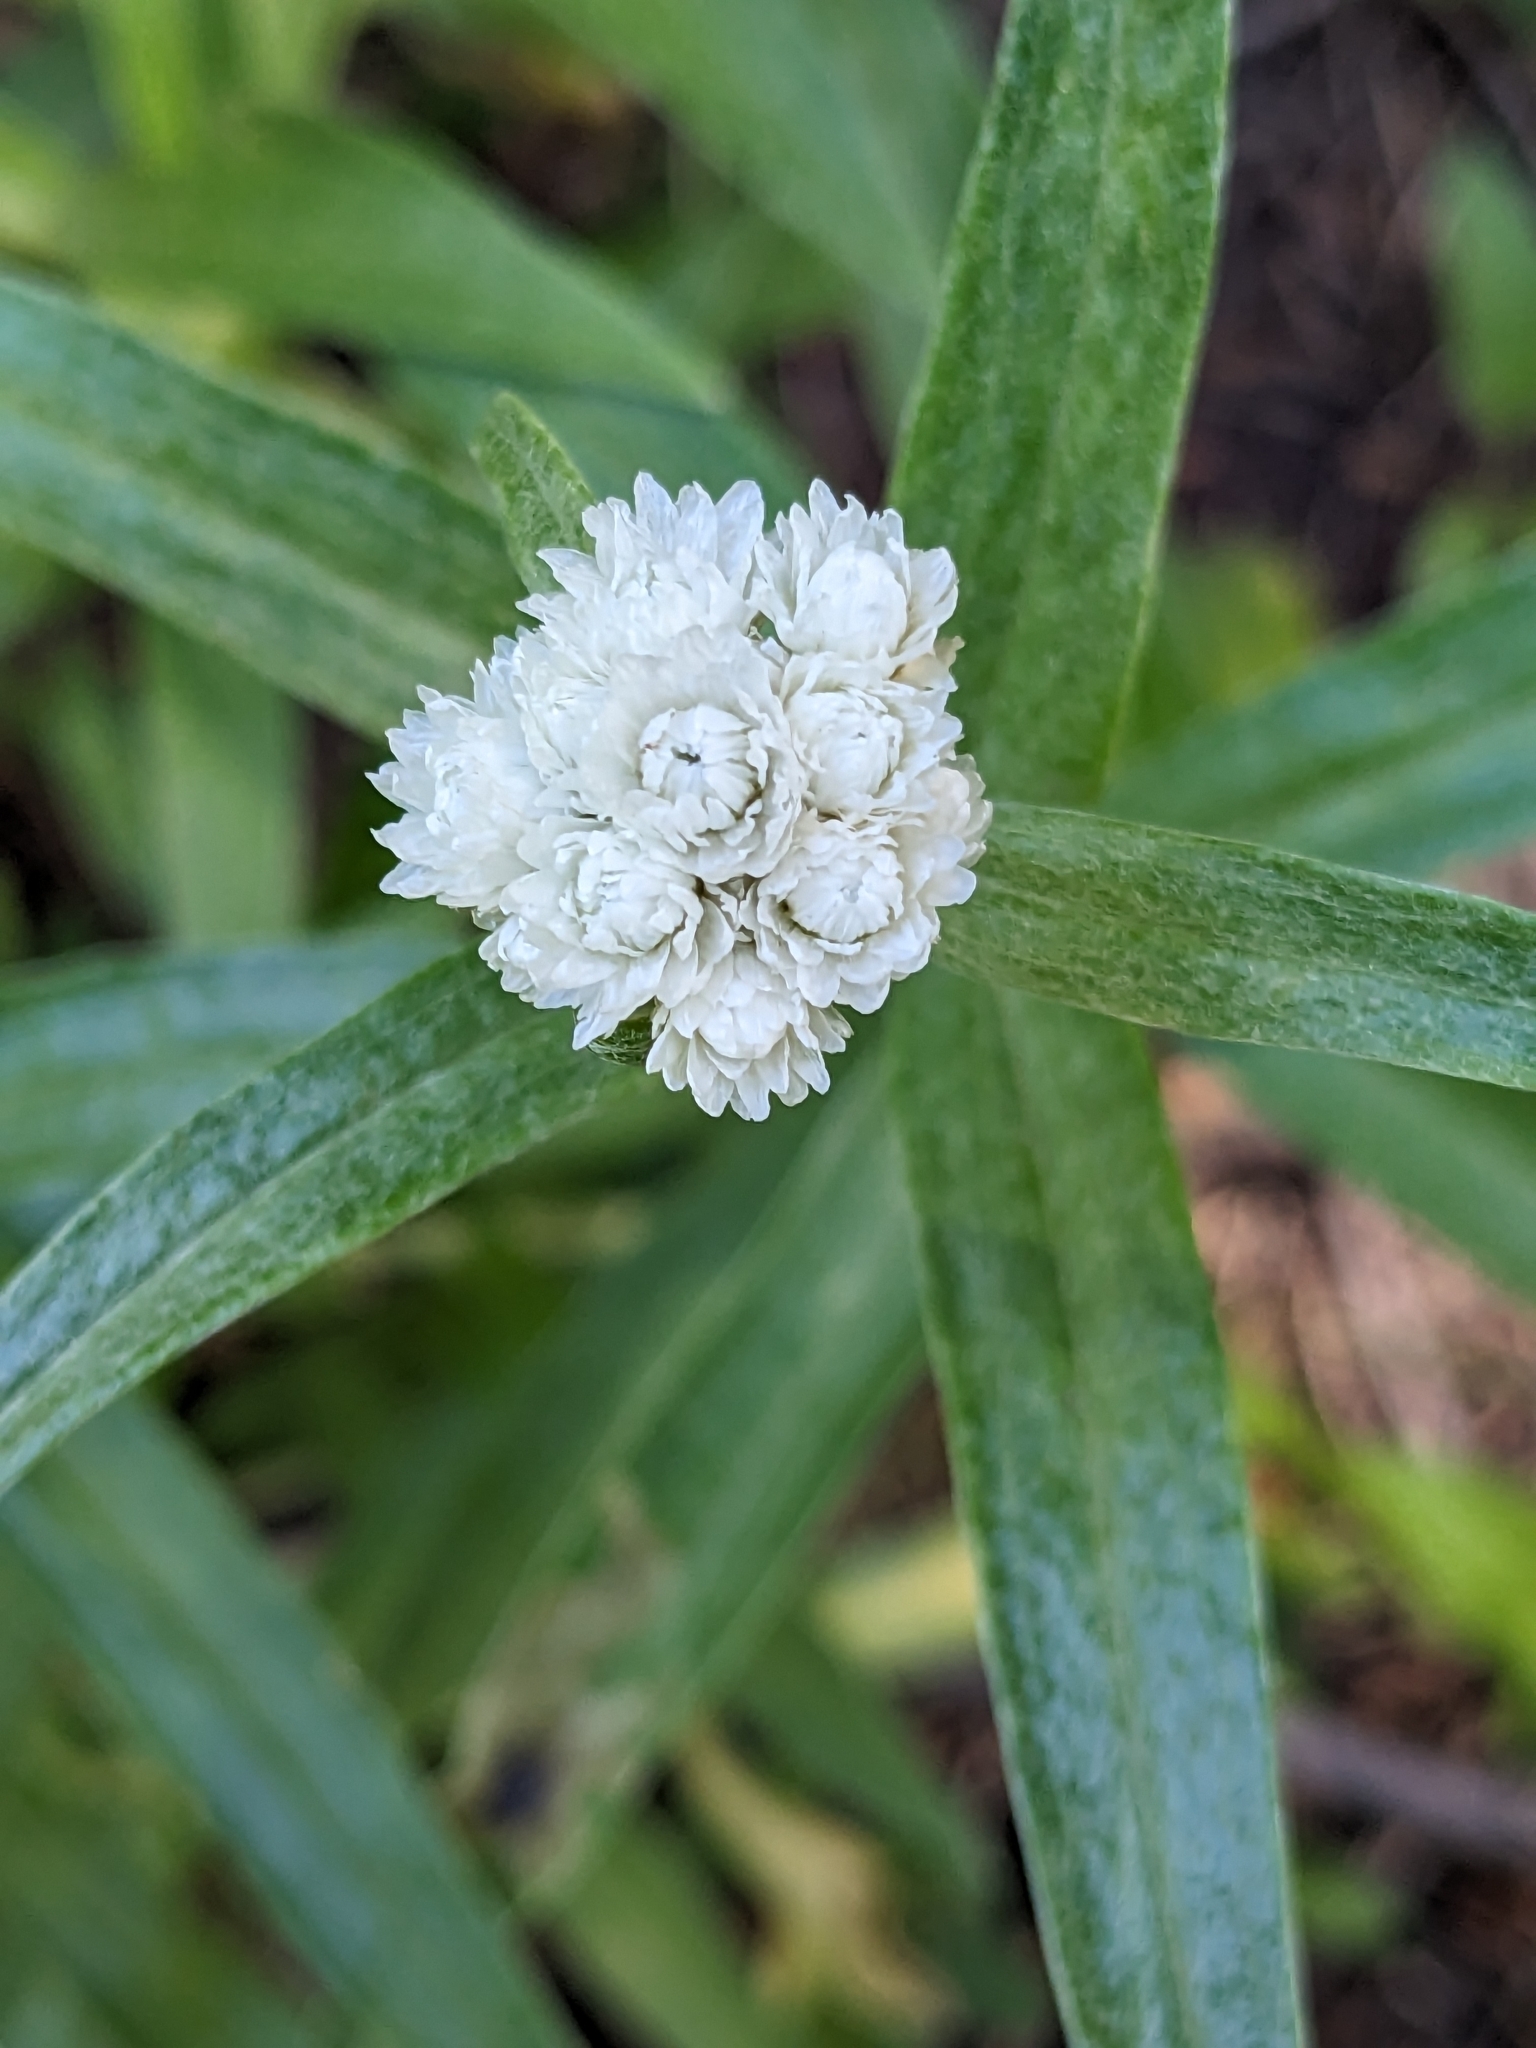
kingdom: Plantae
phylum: Tracheophyta
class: Magnoliopsida
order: Asterales
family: Asteraceae
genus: Anaphalis
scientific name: Anaphalis margaritacea
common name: Pearly everlasting
